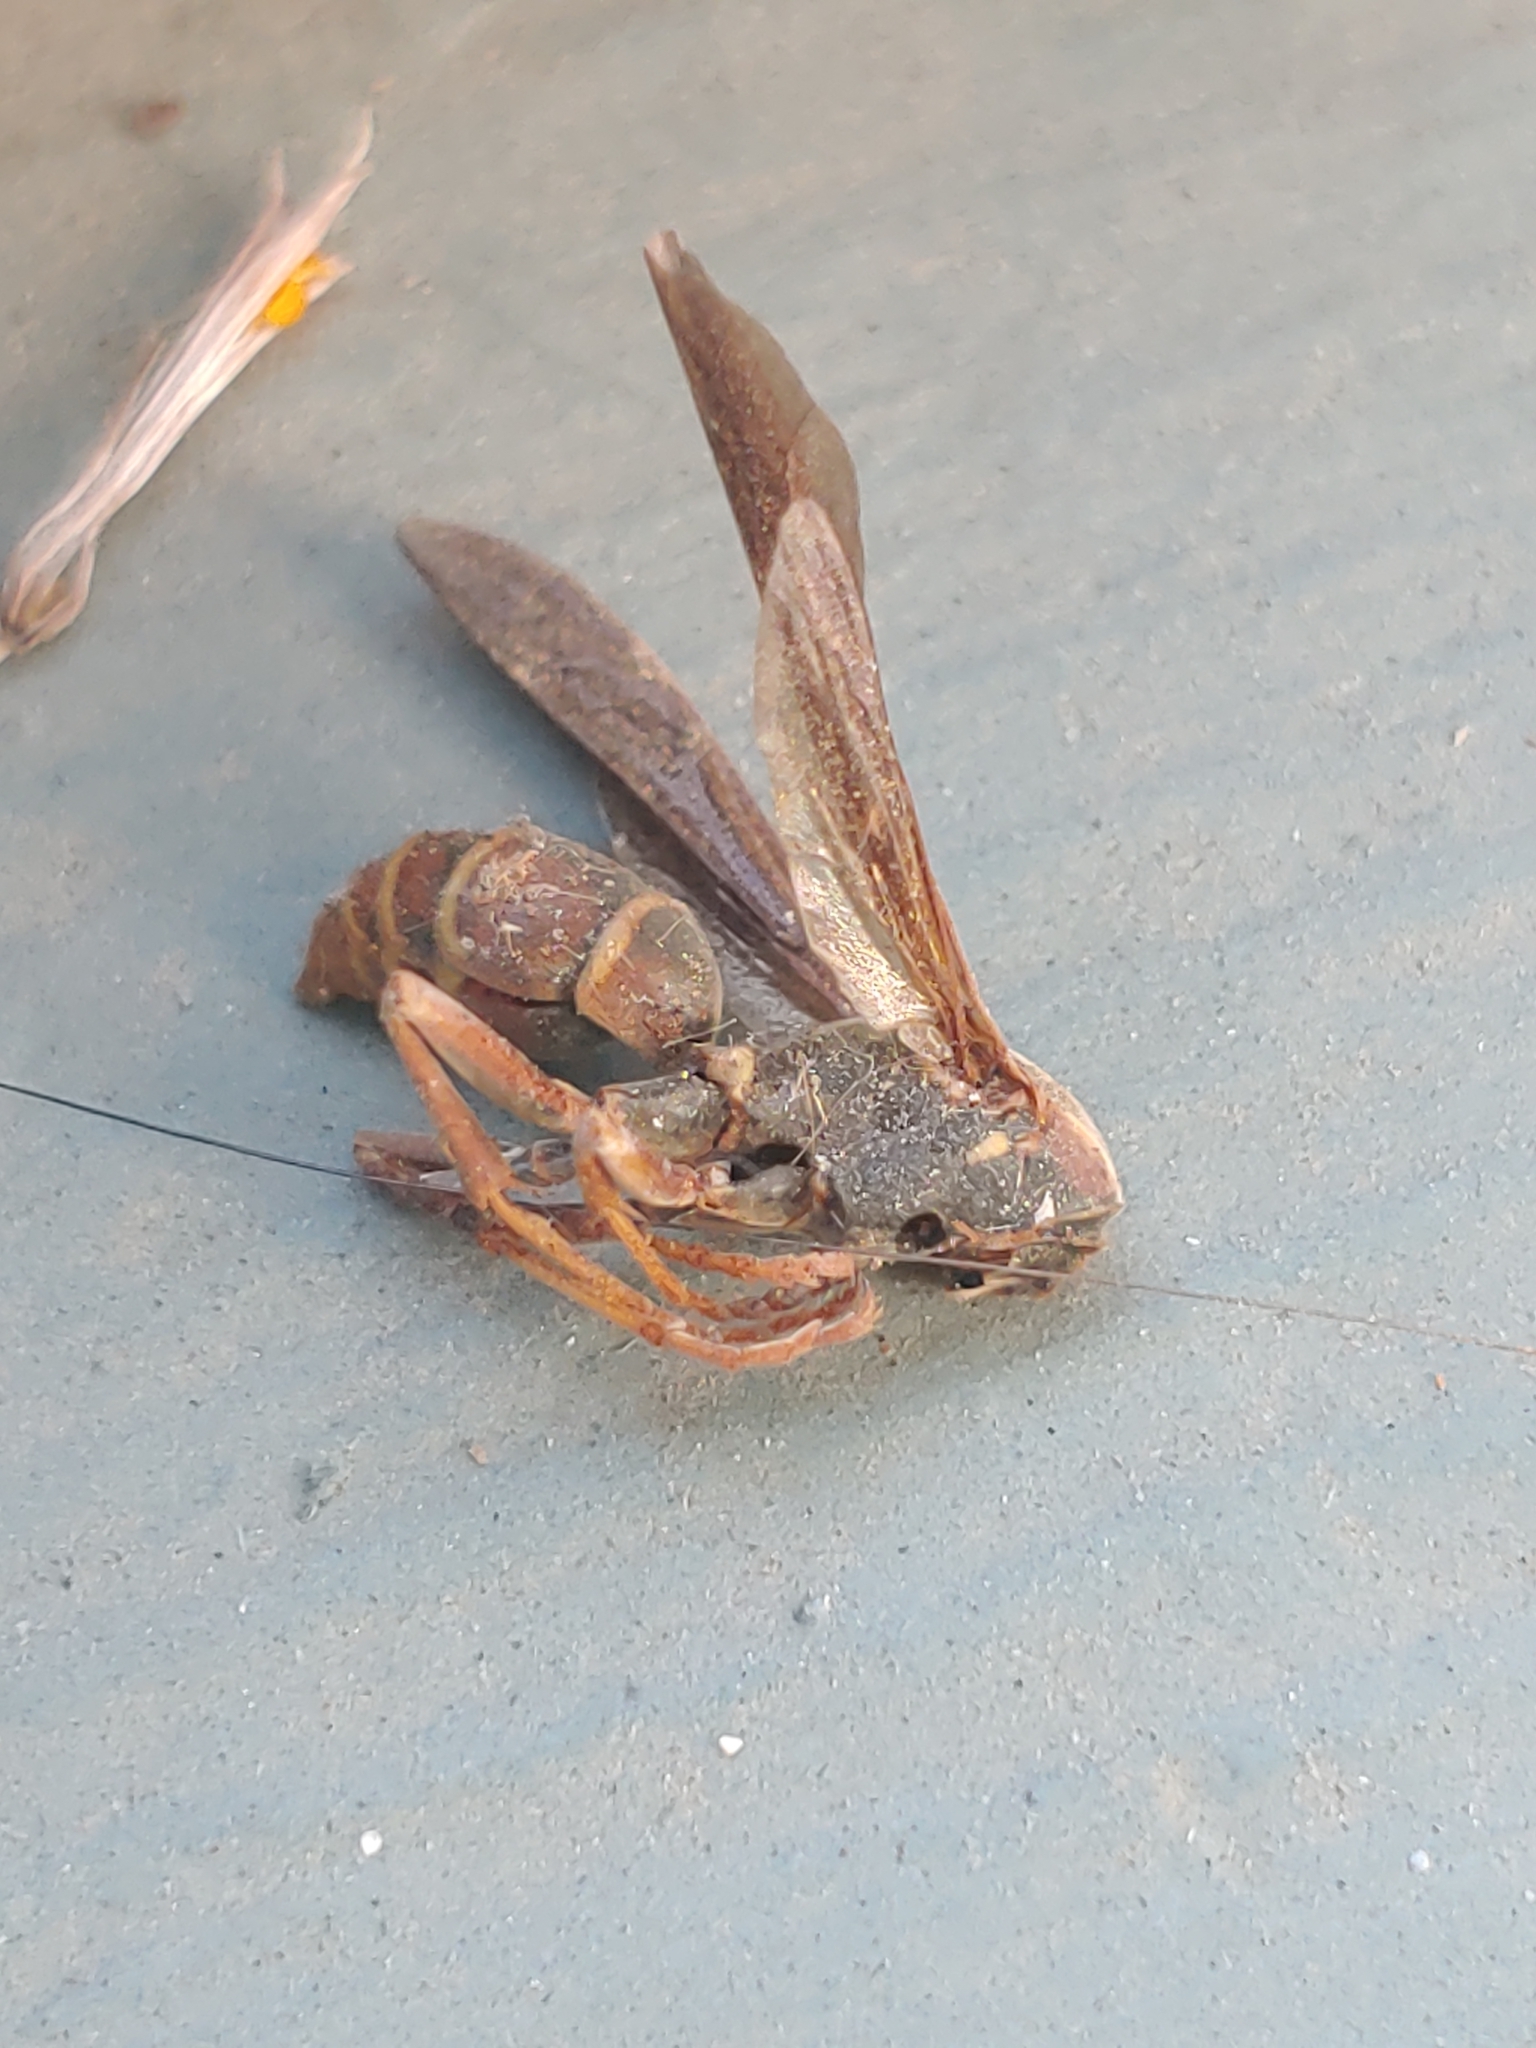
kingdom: Animalia
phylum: Arthropoda
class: Insecta
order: Hymenoptera
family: Eumenidae
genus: Polistes
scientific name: Polistes fuscatus
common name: Dark paper wasp
